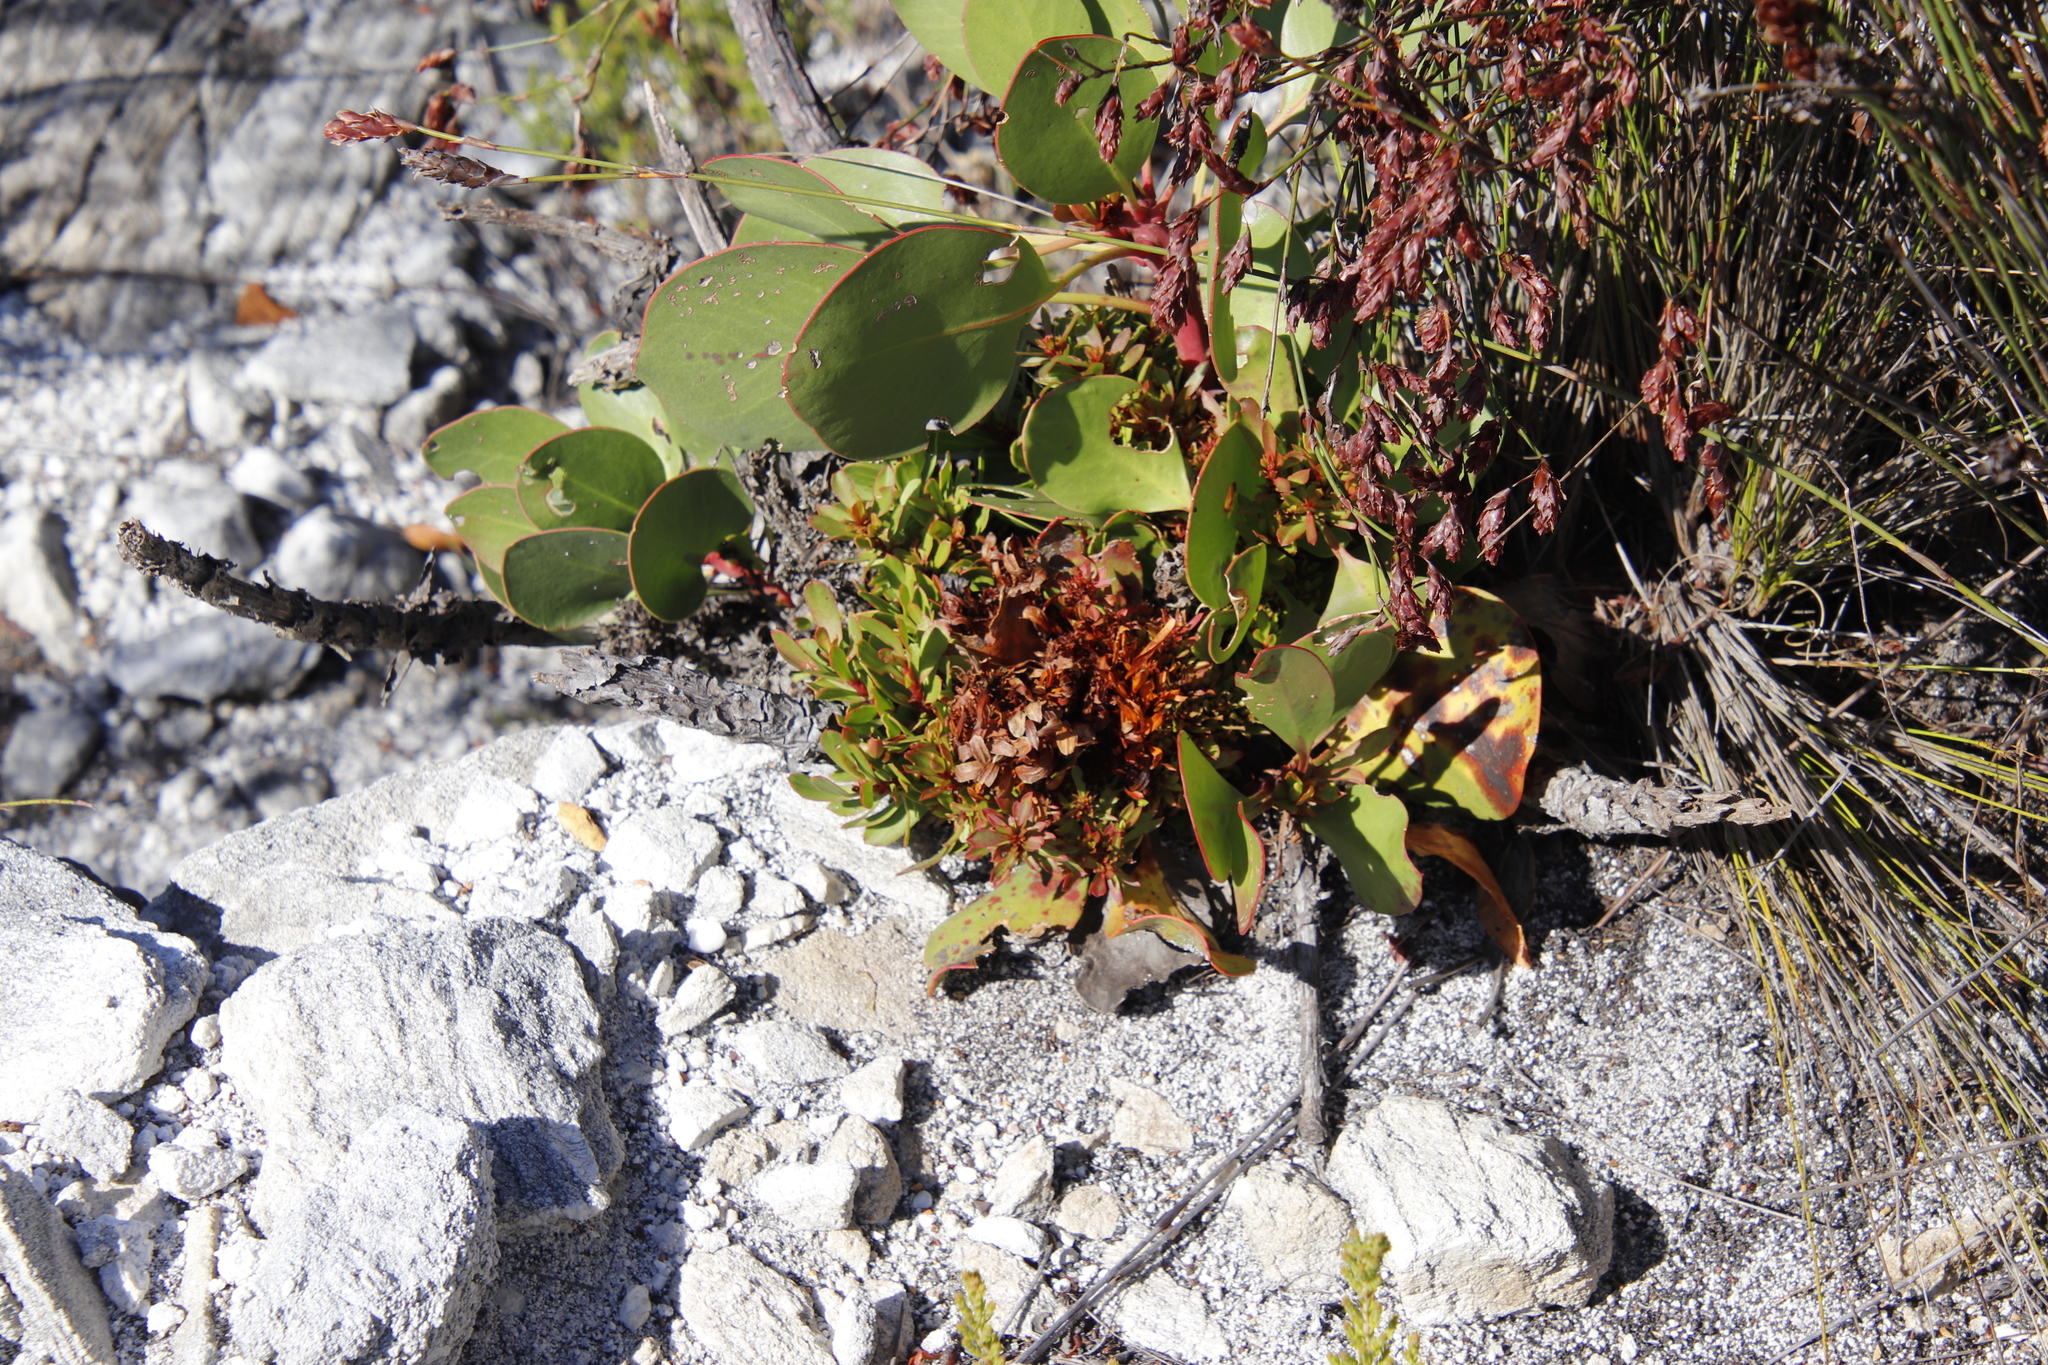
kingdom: Plantae
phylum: Tracheophyta
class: Magnoliopsida
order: Proteales
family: Proteaceae
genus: Protea
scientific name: Protea cynaroides
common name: King protea
